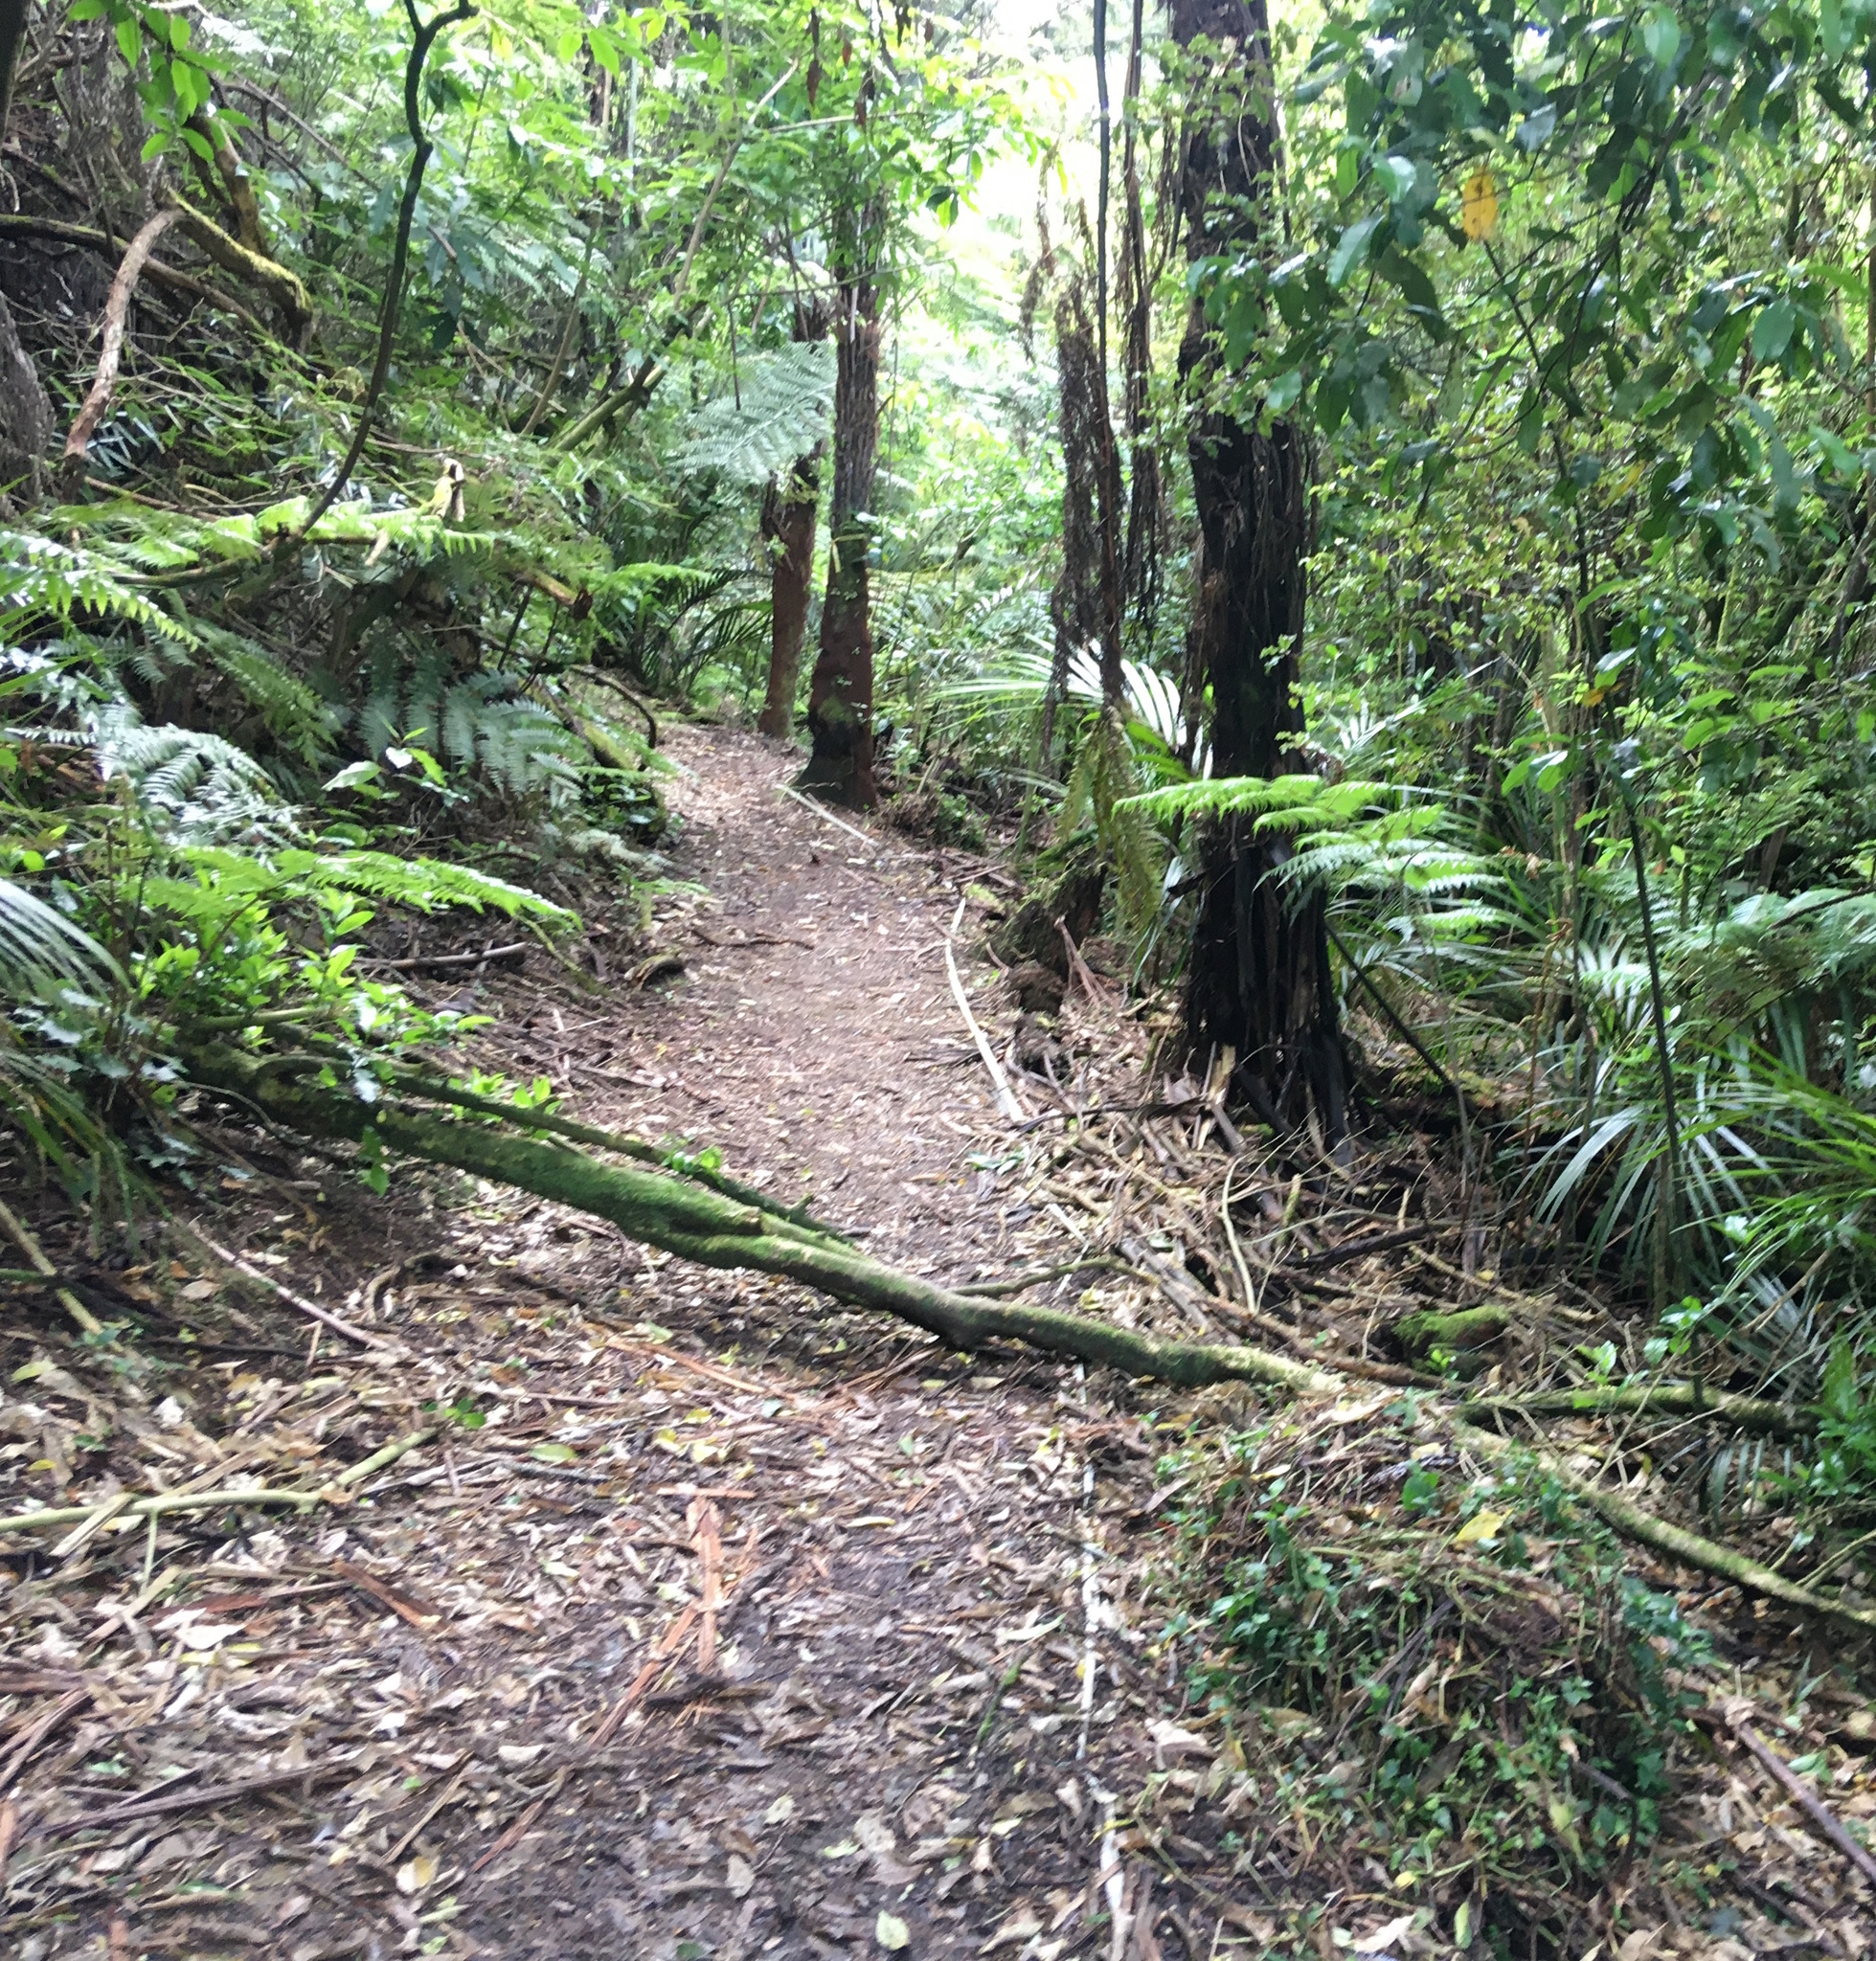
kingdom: Plantae
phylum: Tracheophyta
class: Liliopsida
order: Commelinales
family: Commelinaceae
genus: Tradescantia
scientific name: Tradescantia fluminensis
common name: Wandering-jew
